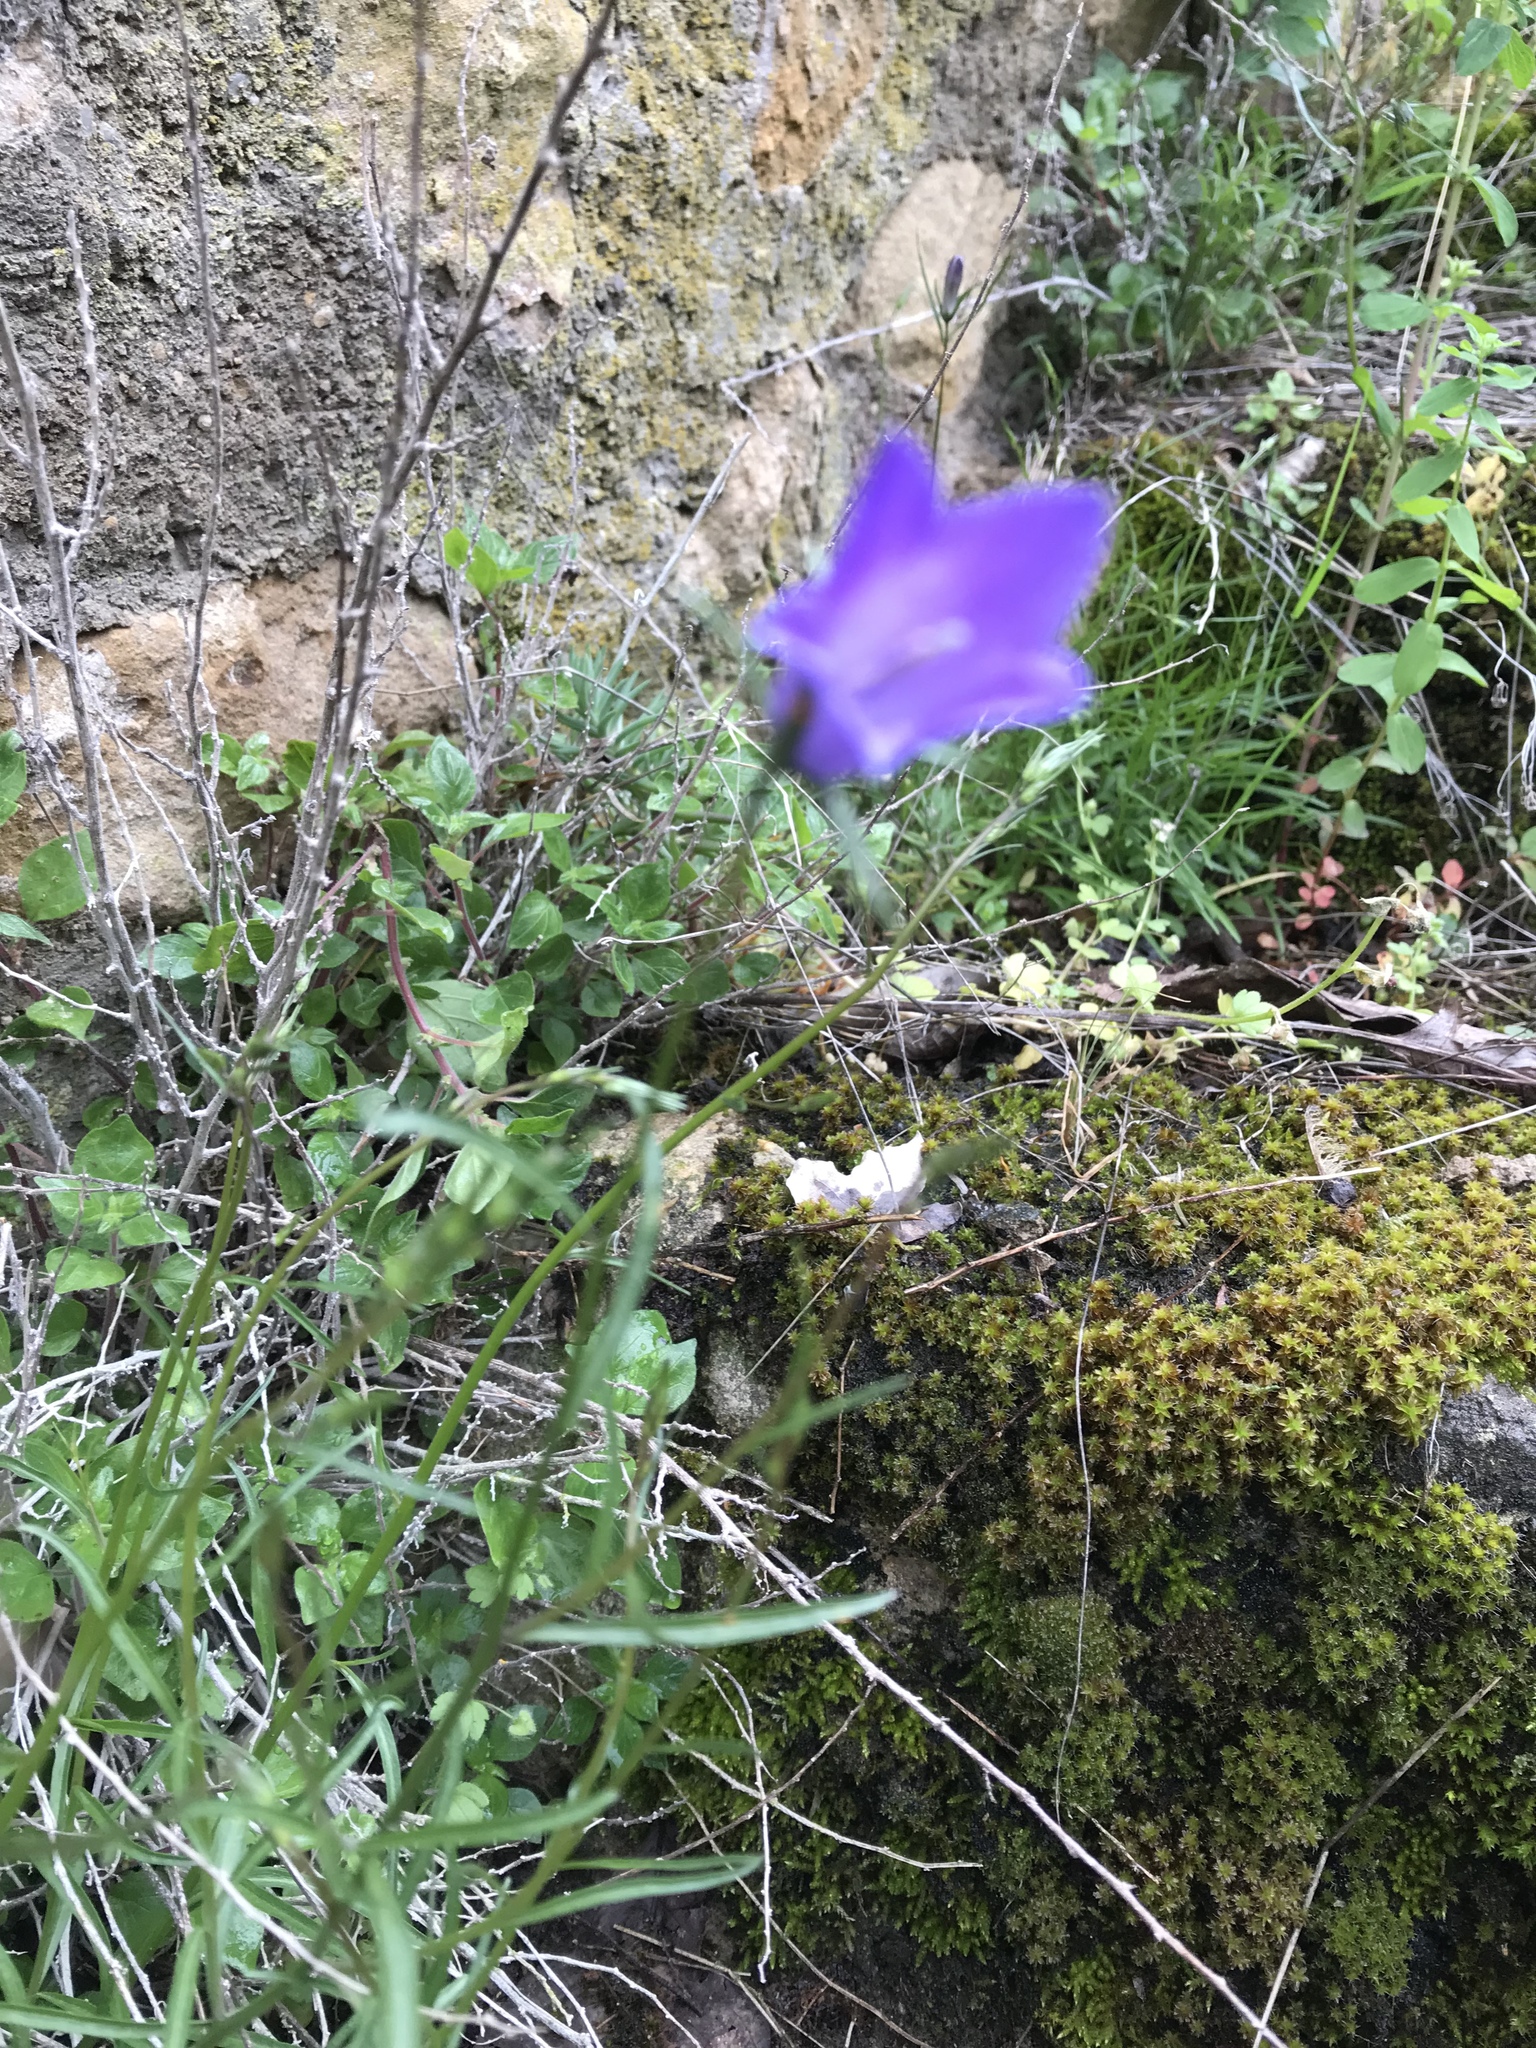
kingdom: Plantae
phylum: Tracheophyta
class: Magnoliopsida
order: Asterales
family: Campanulaceae
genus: Campanula
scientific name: Campanula rotundifolia
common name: Harebell
